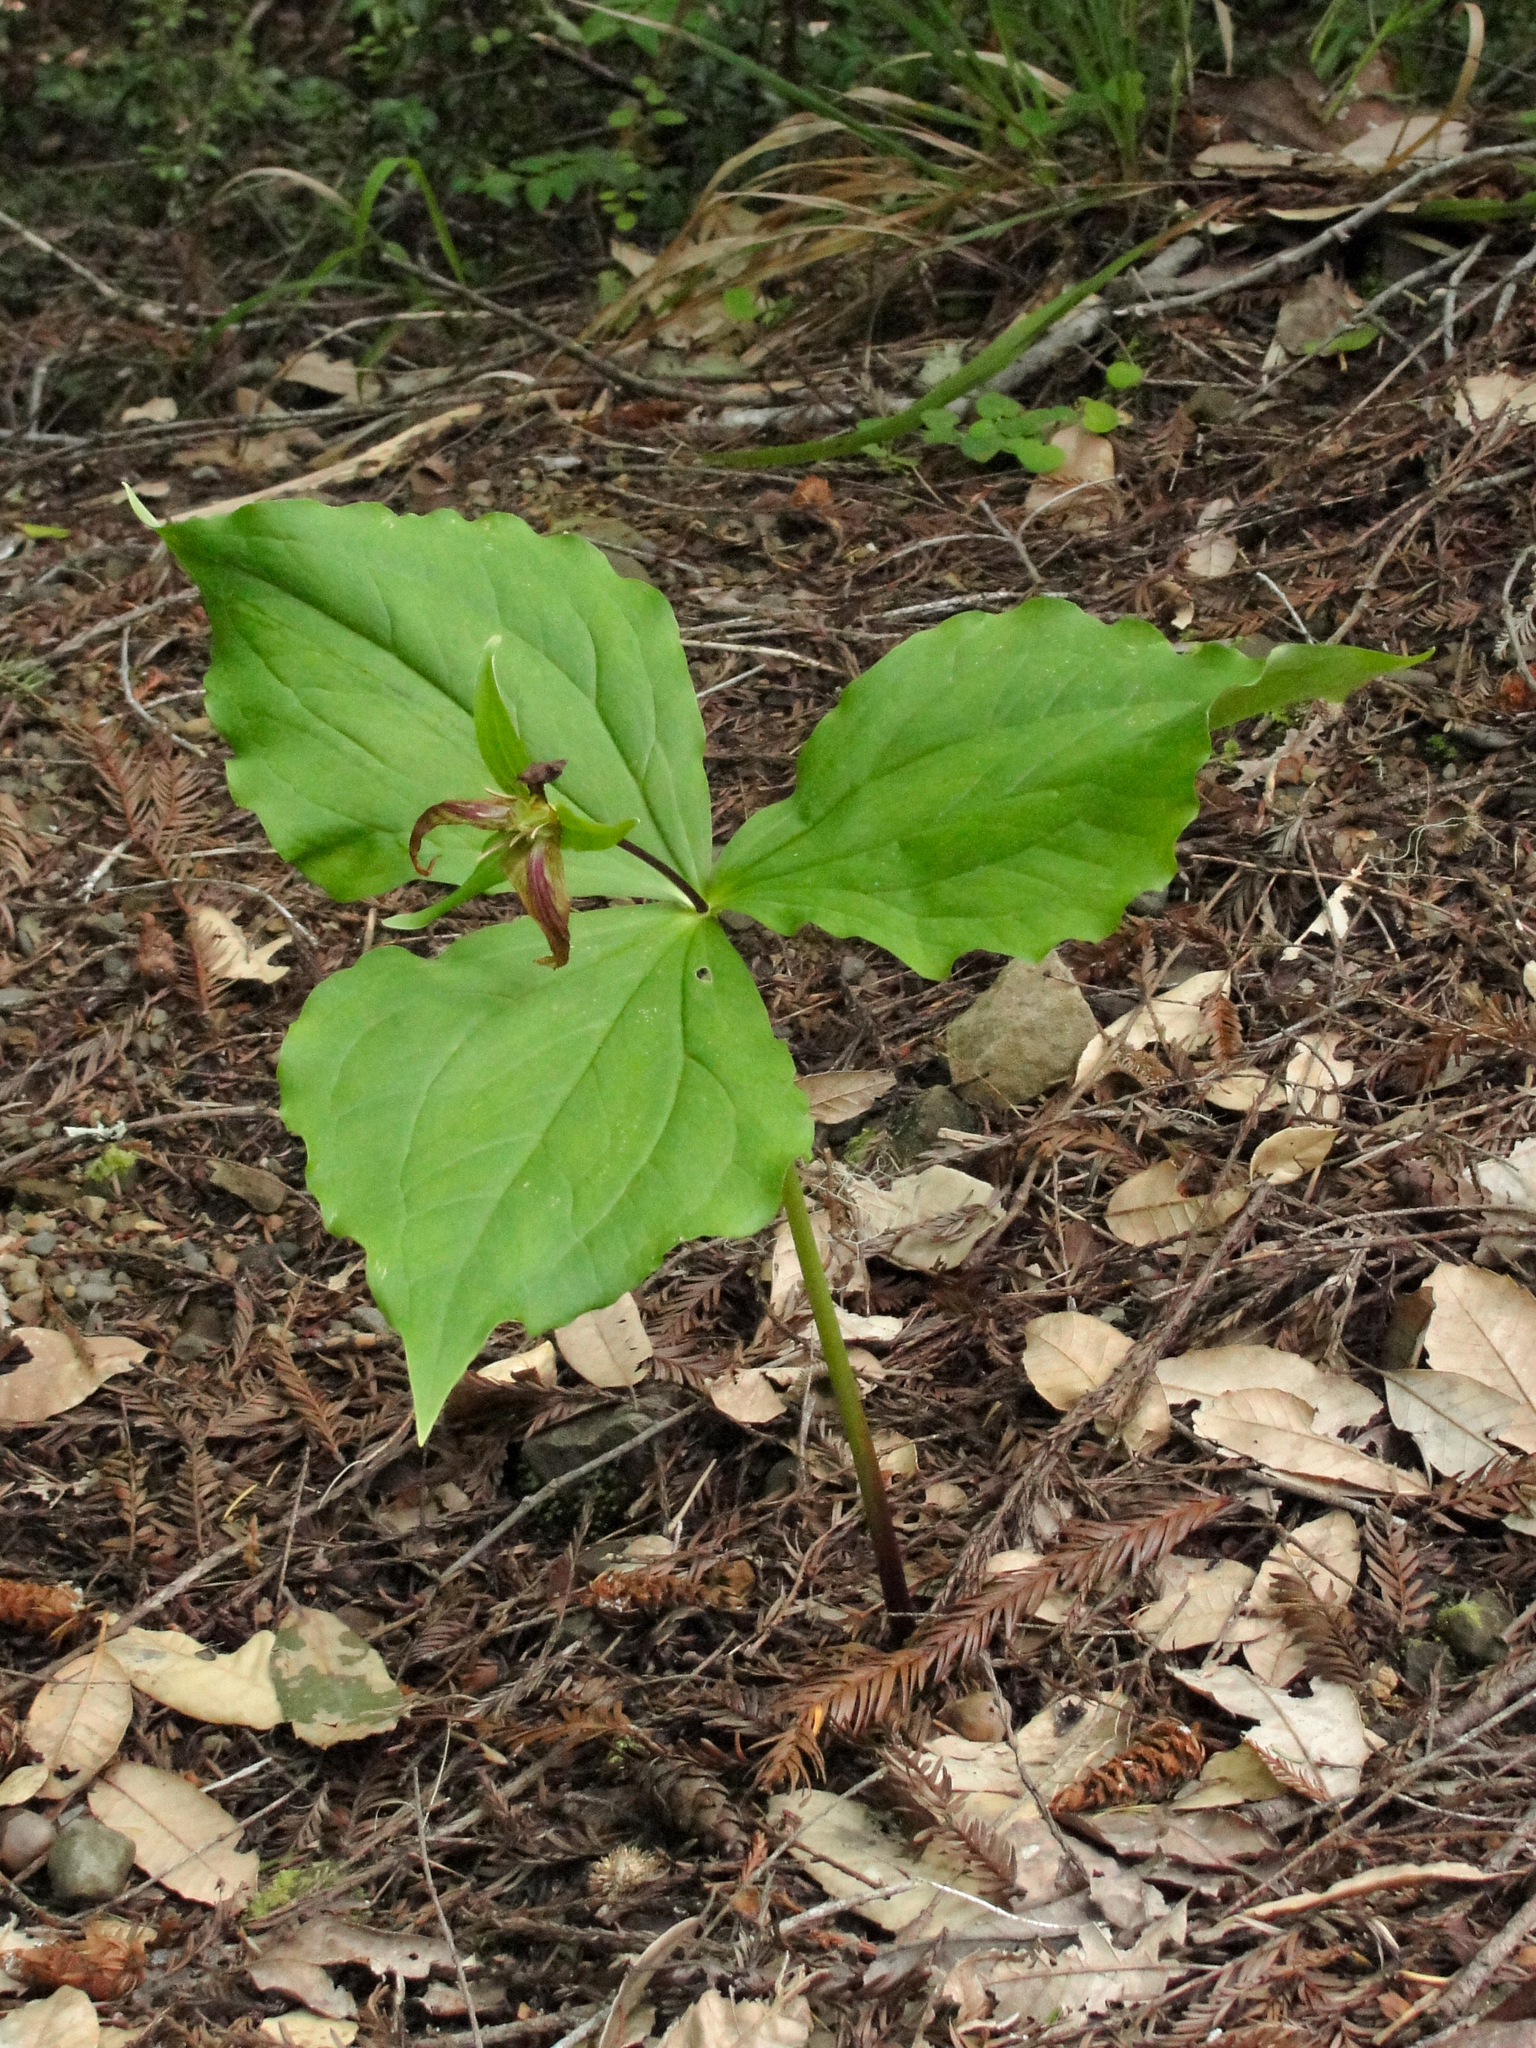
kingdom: Plantae
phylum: Tracheophyta
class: Liliopsida
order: Liliales
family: Melanthiaceae
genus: Trillium
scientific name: Trillium ovatum
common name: Pacific trillium
